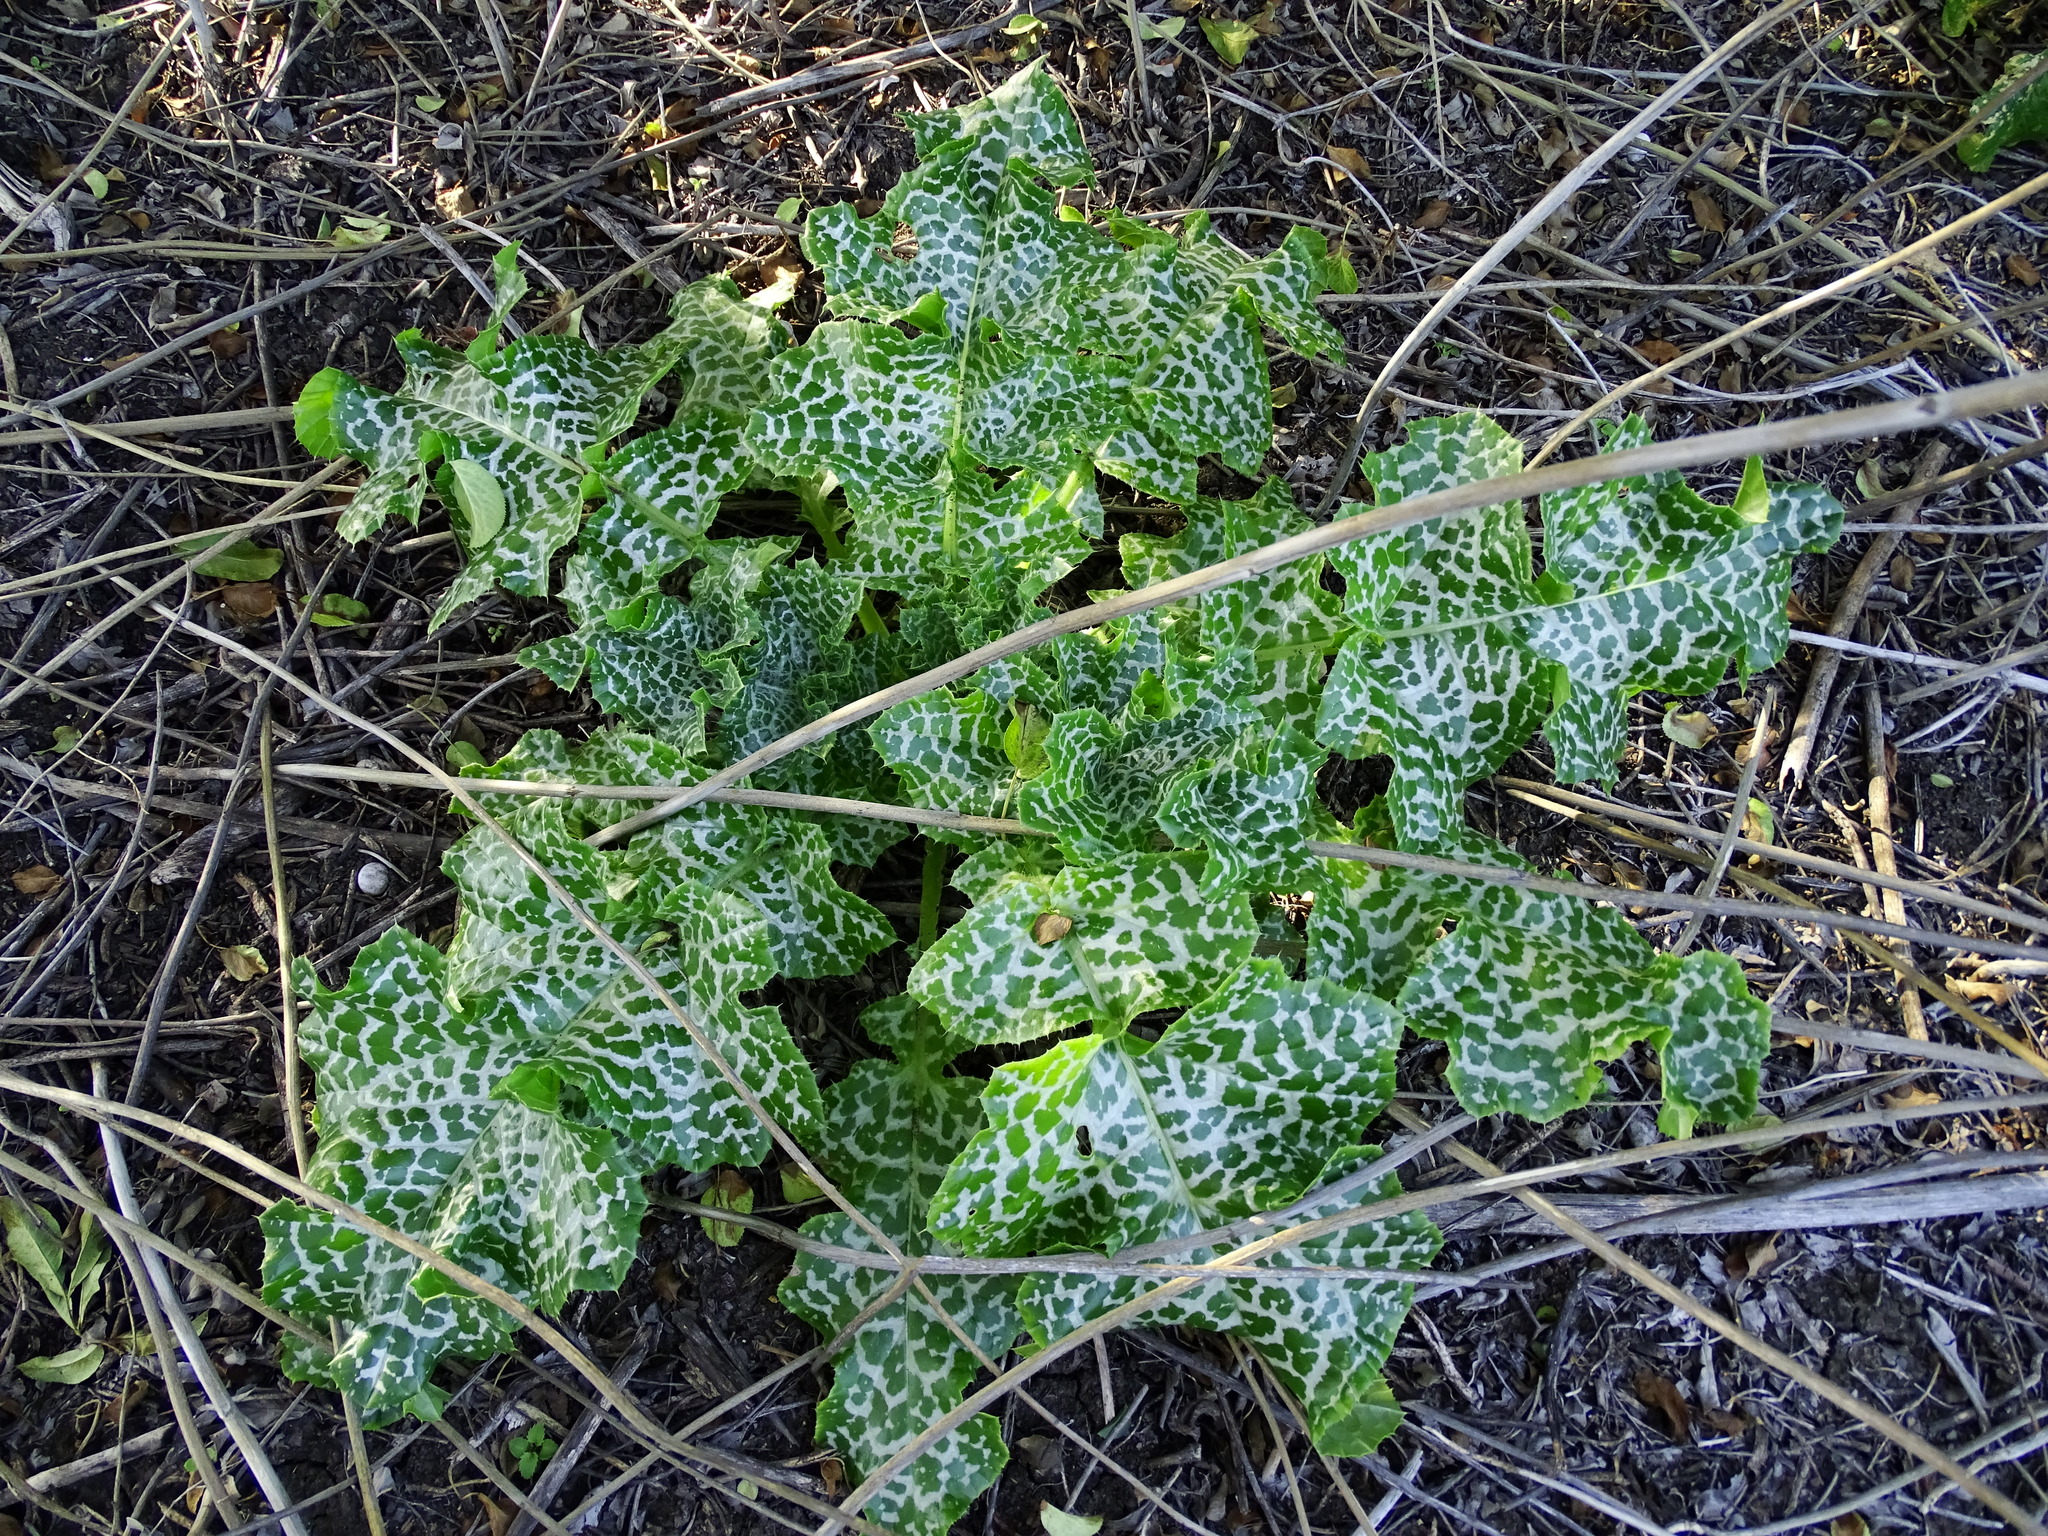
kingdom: Plantae
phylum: Tracheophyta
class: Magnoliopsida
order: Asterales
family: Asteraceae
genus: Silybum
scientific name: Silybum marianum
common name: Milk thistle
